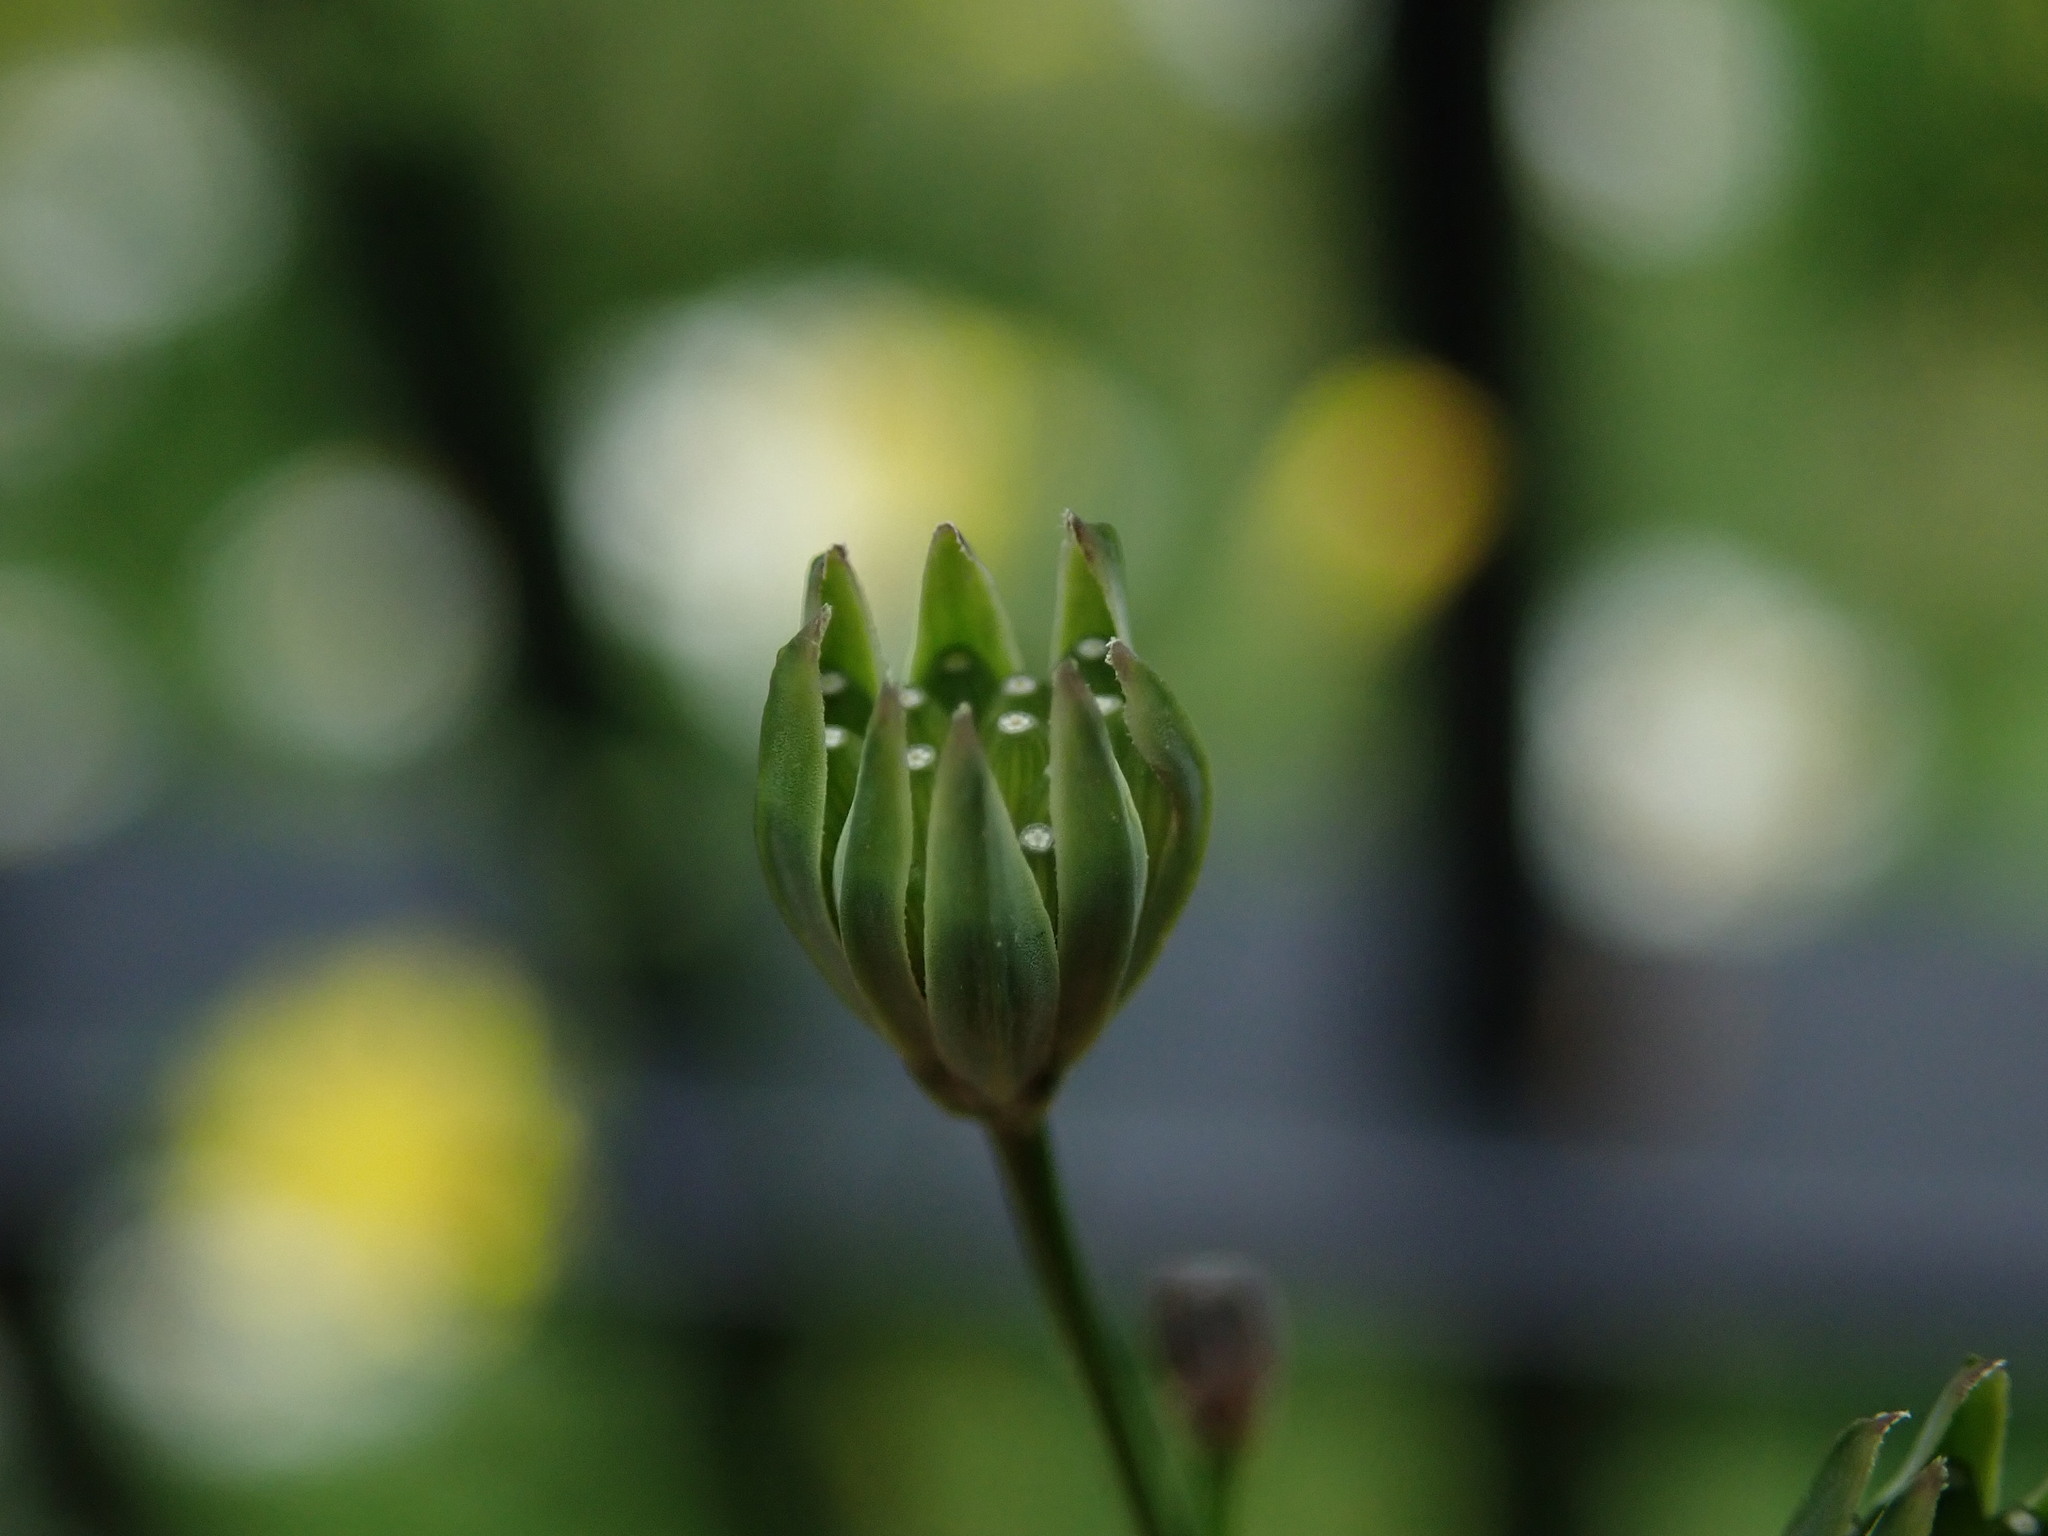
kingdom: Plantae
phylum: Tracheophyta
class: Magnoliopsida
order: Asterales
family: Asteraceae
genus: Lapsana
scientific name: Lapsana communis
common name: Nipplewort
